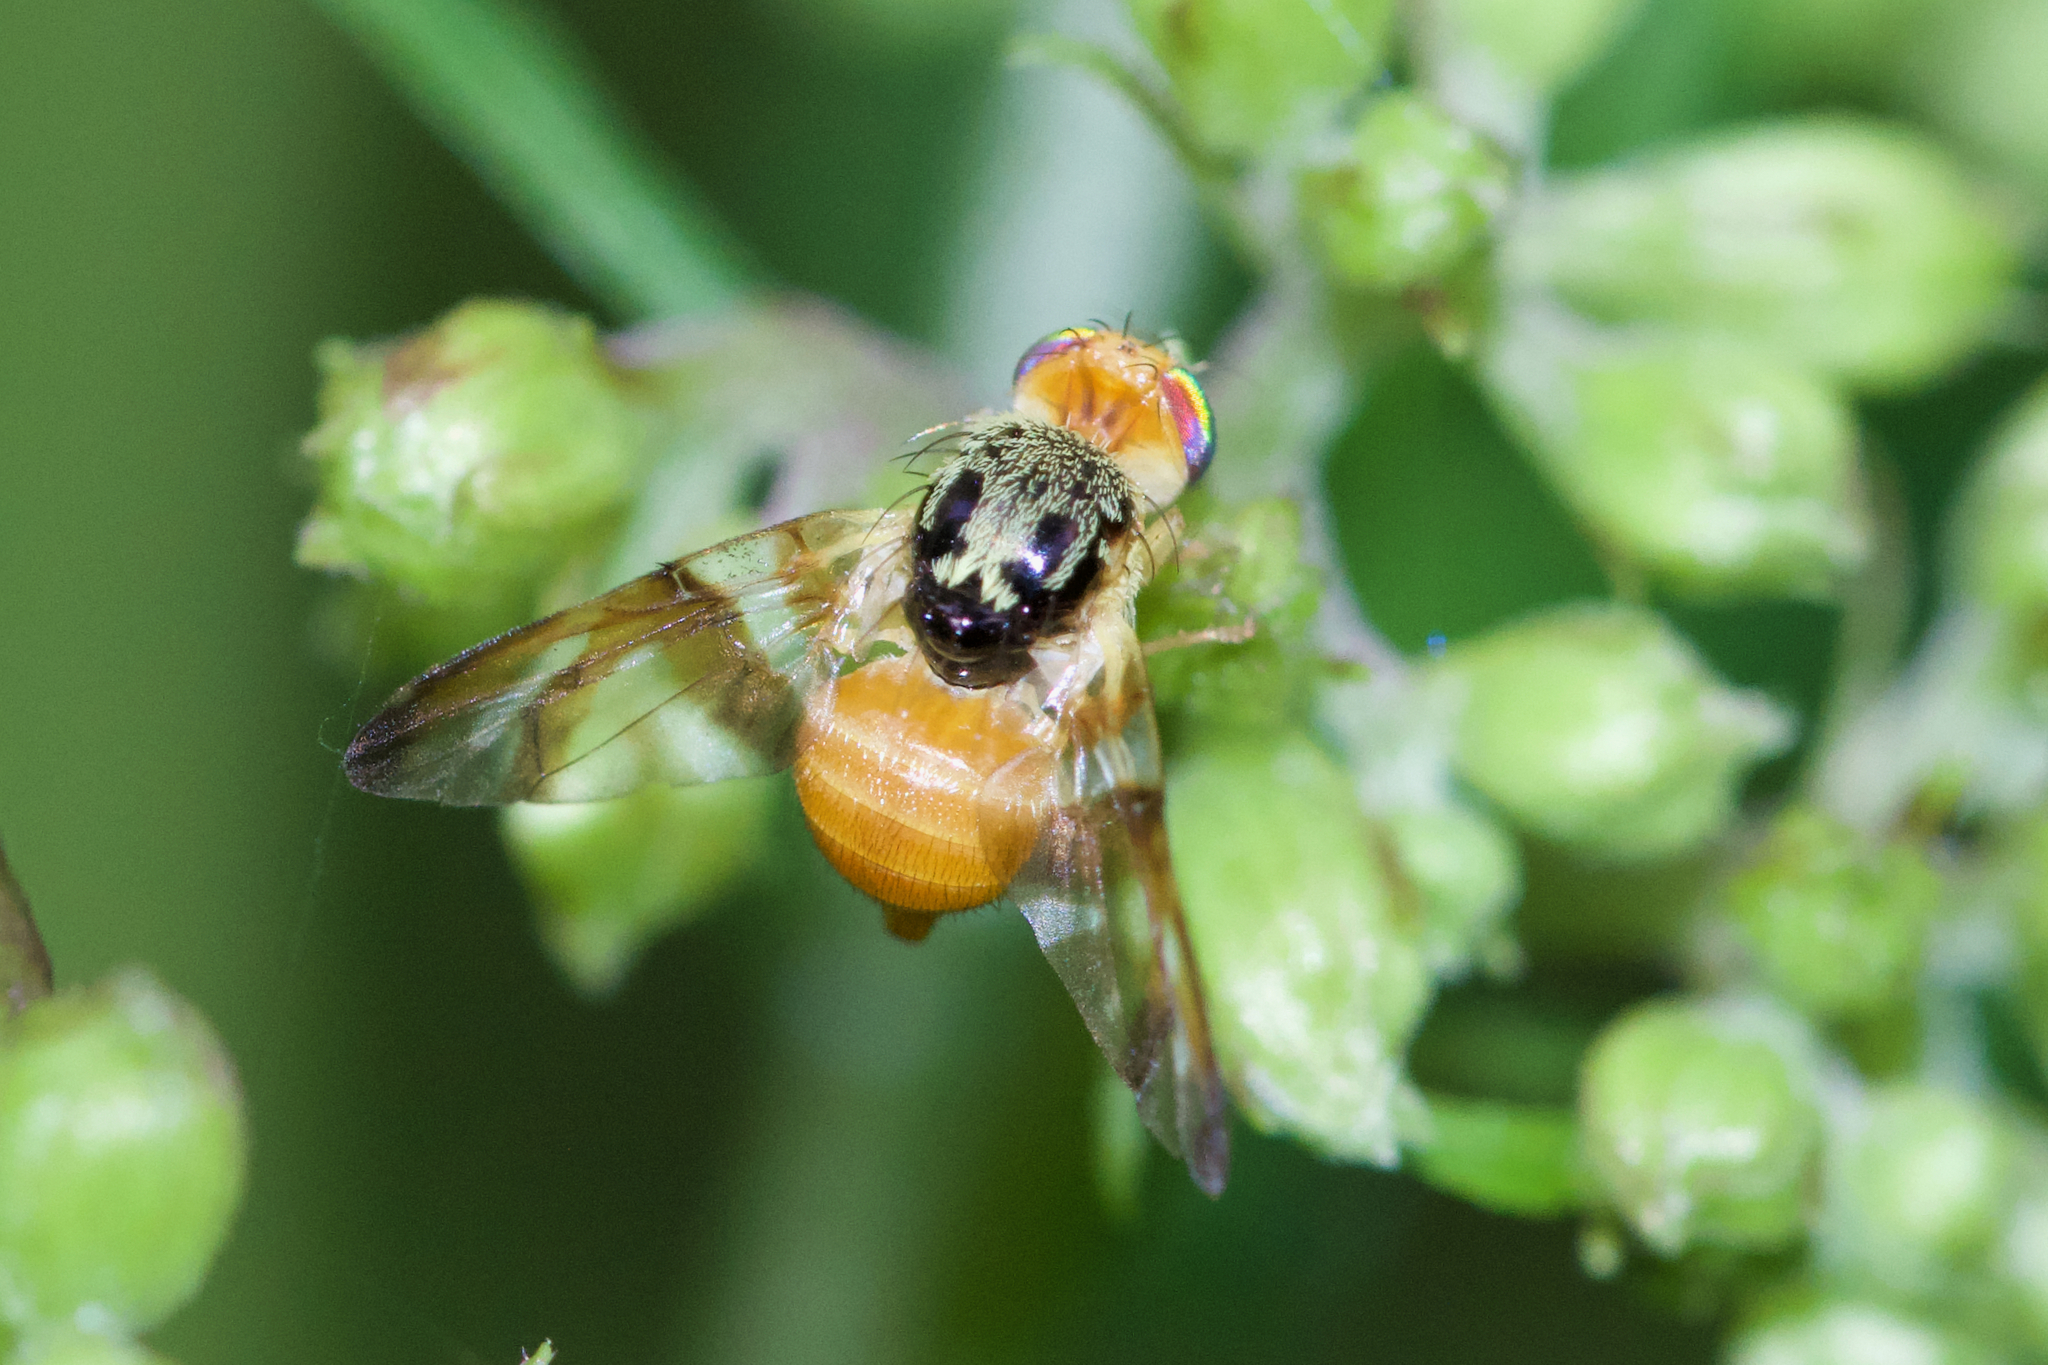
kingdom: Animalia
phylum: Arthropoda
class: Insecta
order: Diptera
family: Tephritidae
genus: Procecidocharoides
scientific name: Procecidocharoides penelope
